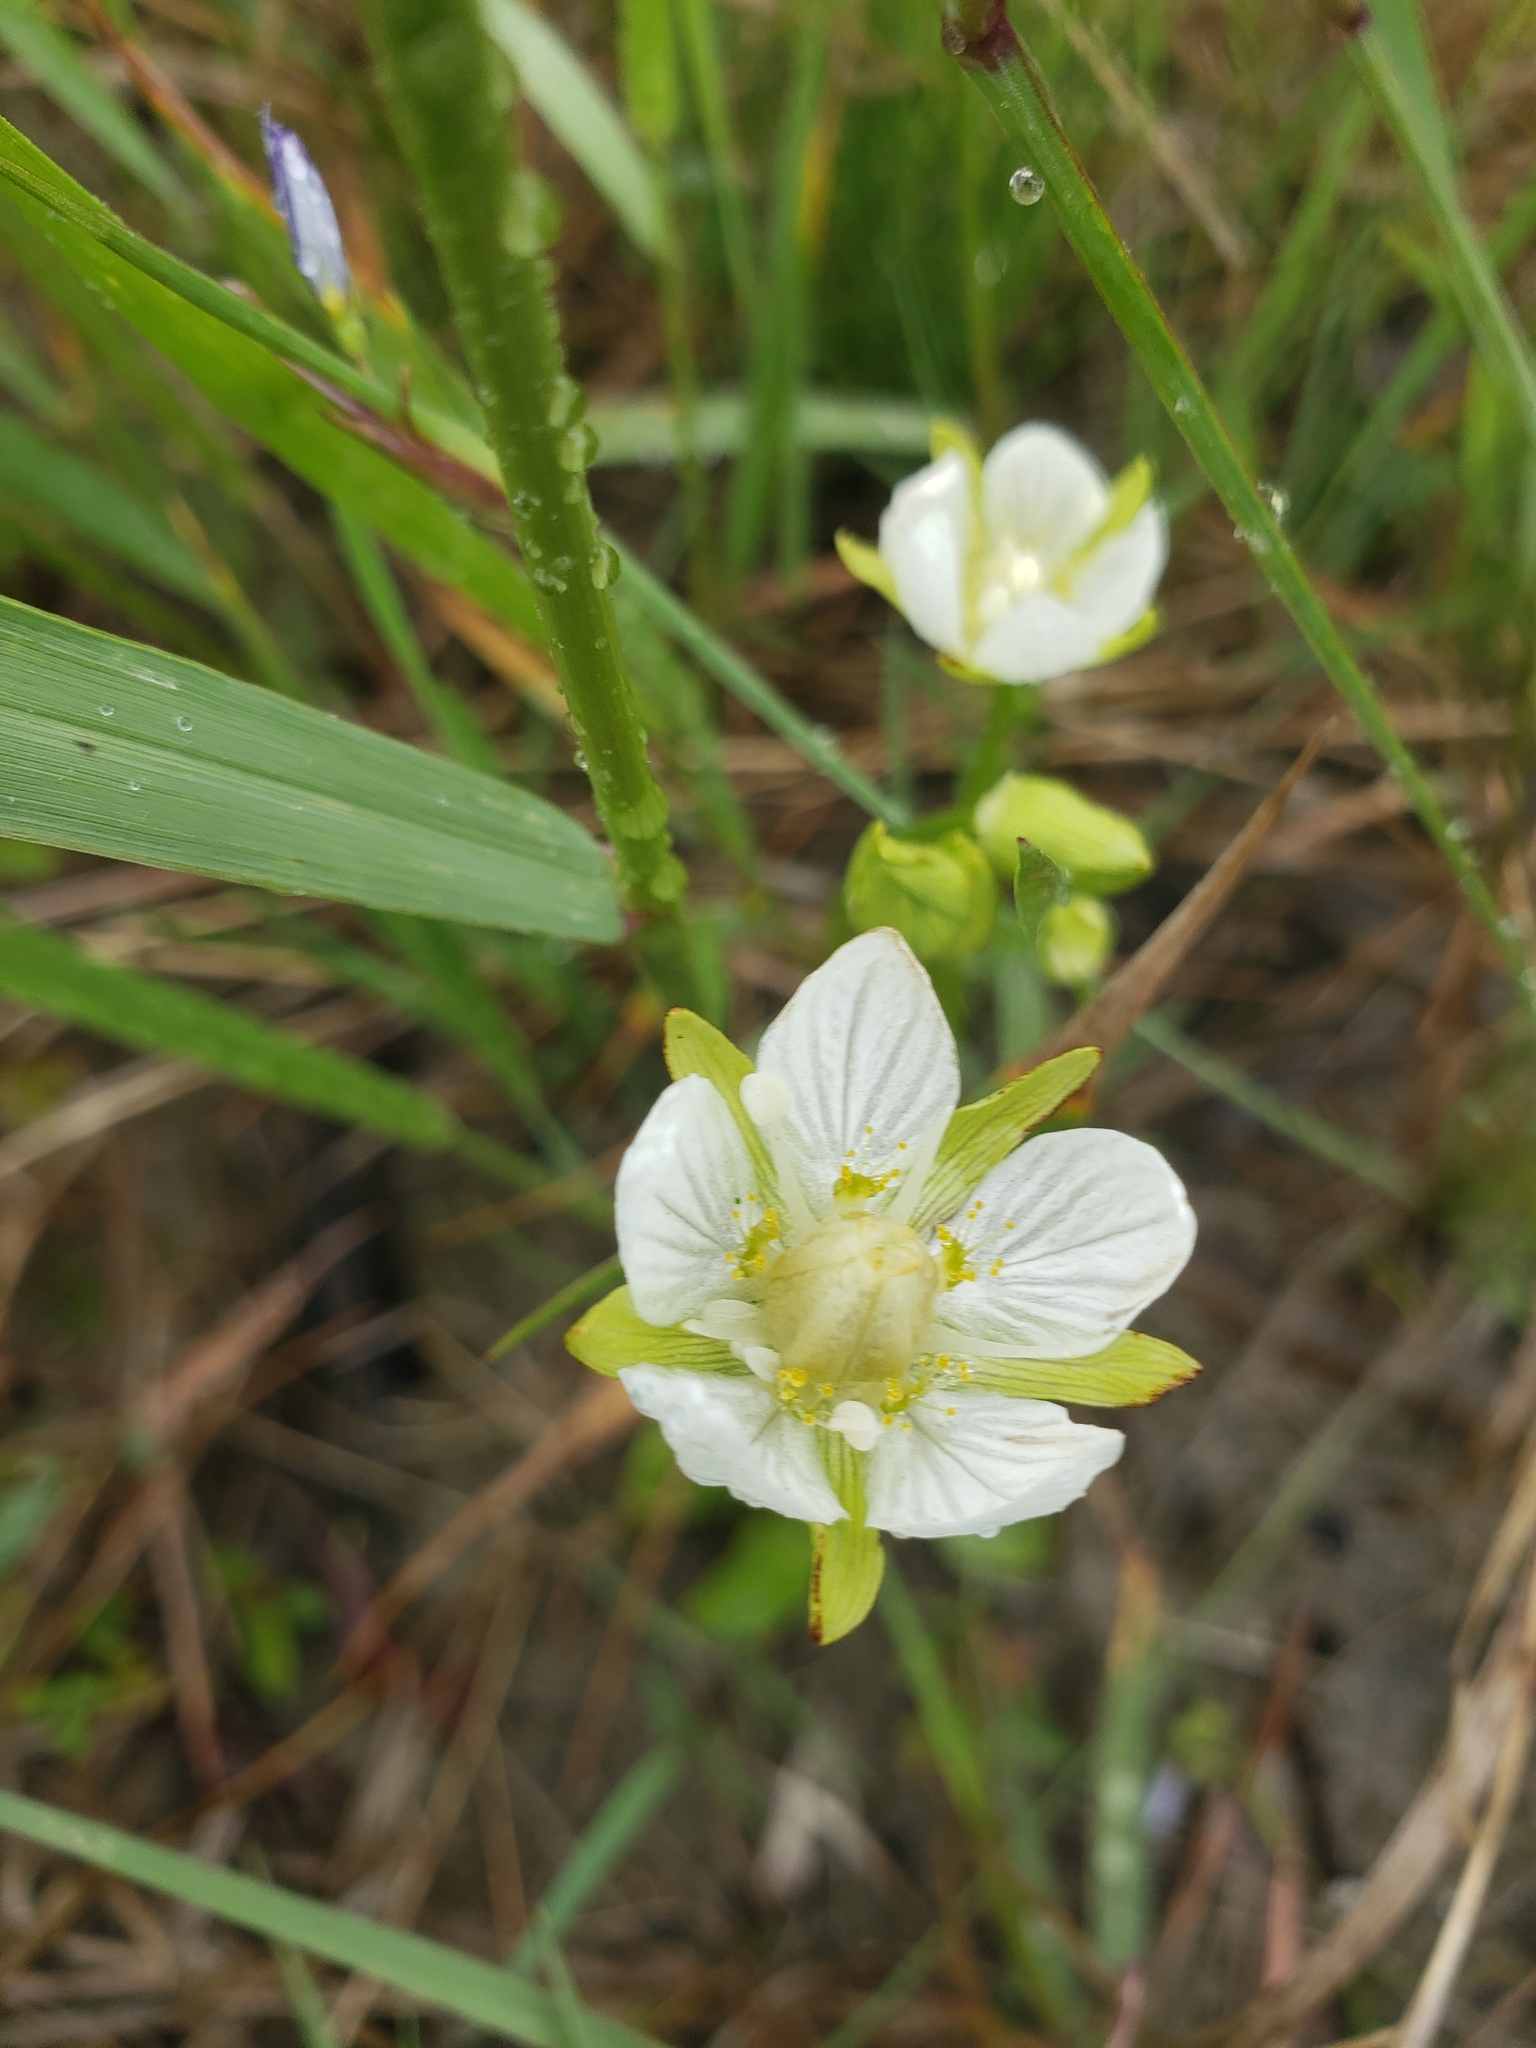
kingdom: Plantae
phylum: Tracheophyta
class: Magnoliopsida
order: Celastrales
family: Parnassiaceae
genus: Parnassia
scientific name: Parnassia palustris
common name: Grass-of-parnassus
